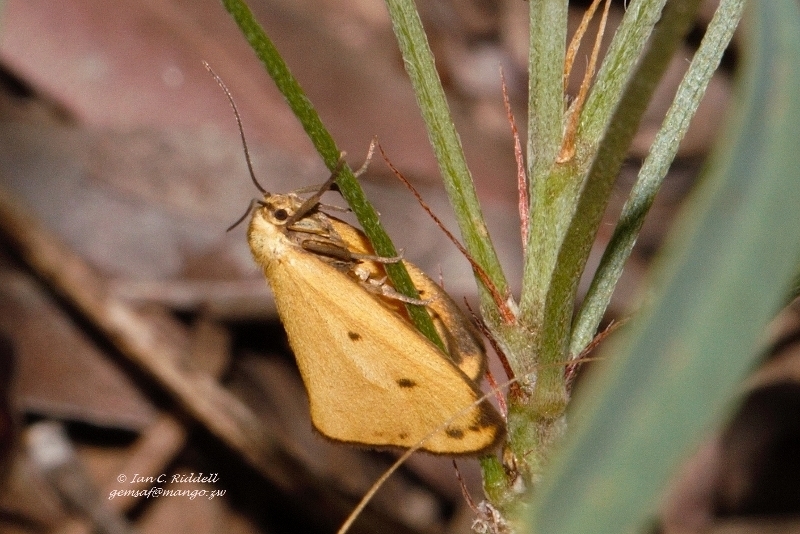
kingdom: Animalia
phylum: Arthropoda
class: Insecta
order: Lepidoptera
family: Erebidae
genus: Ochrota
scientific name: Ochrota unicolor
